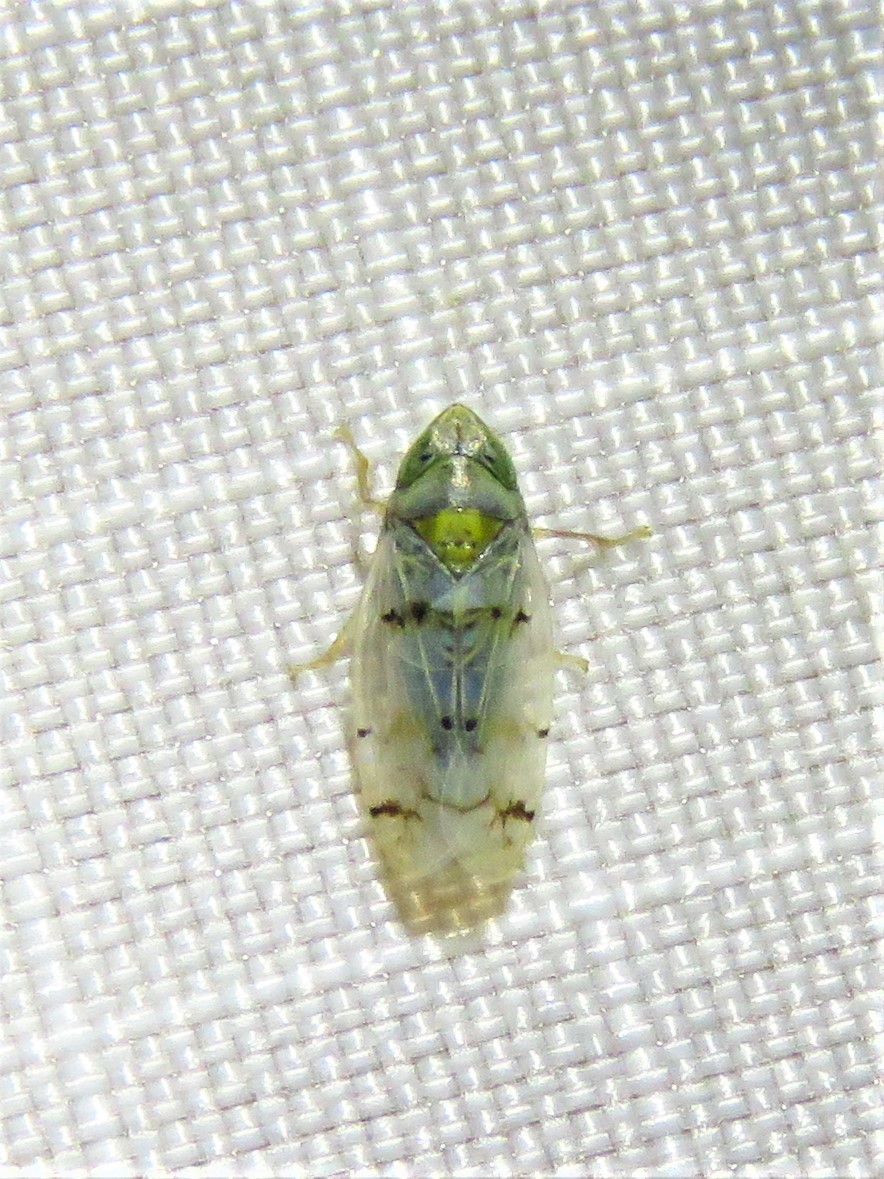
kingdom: Animalia
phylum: Arthropoda
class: Insecta
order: Hemiptera
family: Cicadellidae
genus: Japananus
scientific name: Japananus hyalinus
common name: The japanese maple leafhopper
